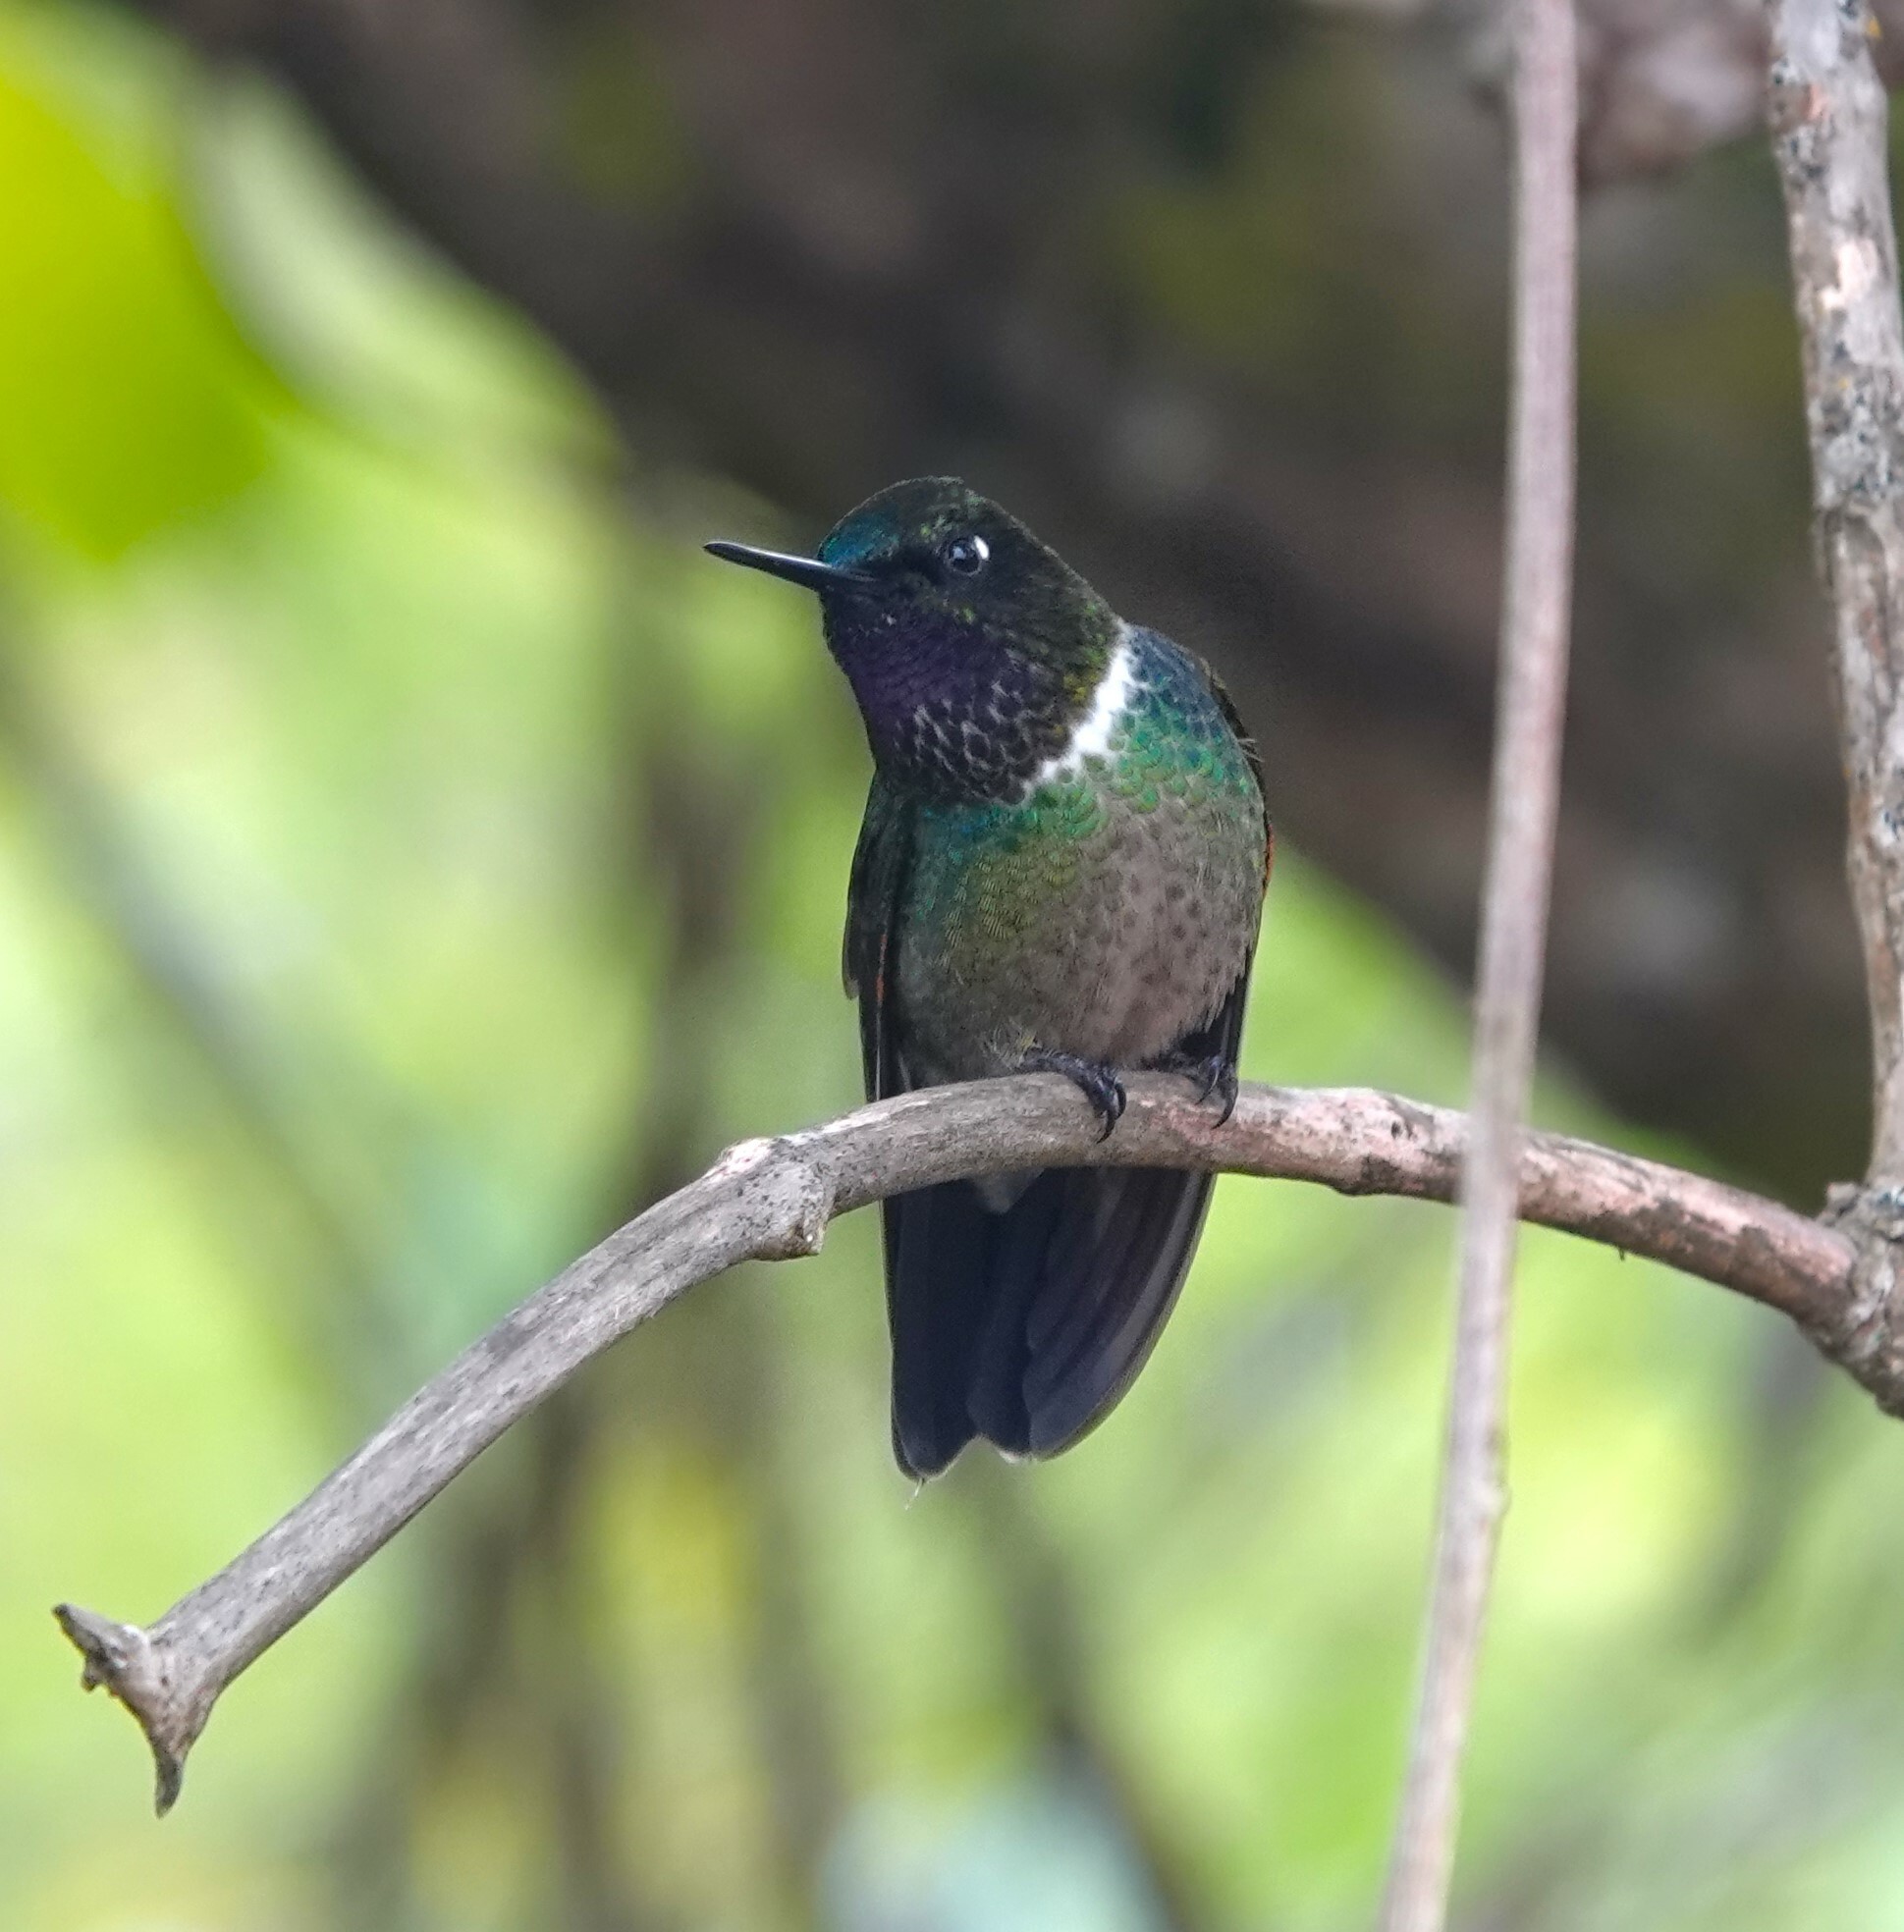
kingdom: Animalia
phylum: Chordata
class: Aves
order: Apodiformes
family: Trochilidae
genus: Heliangelus
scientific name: Heliangelus clarisse
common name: Longuemare's sunangel
